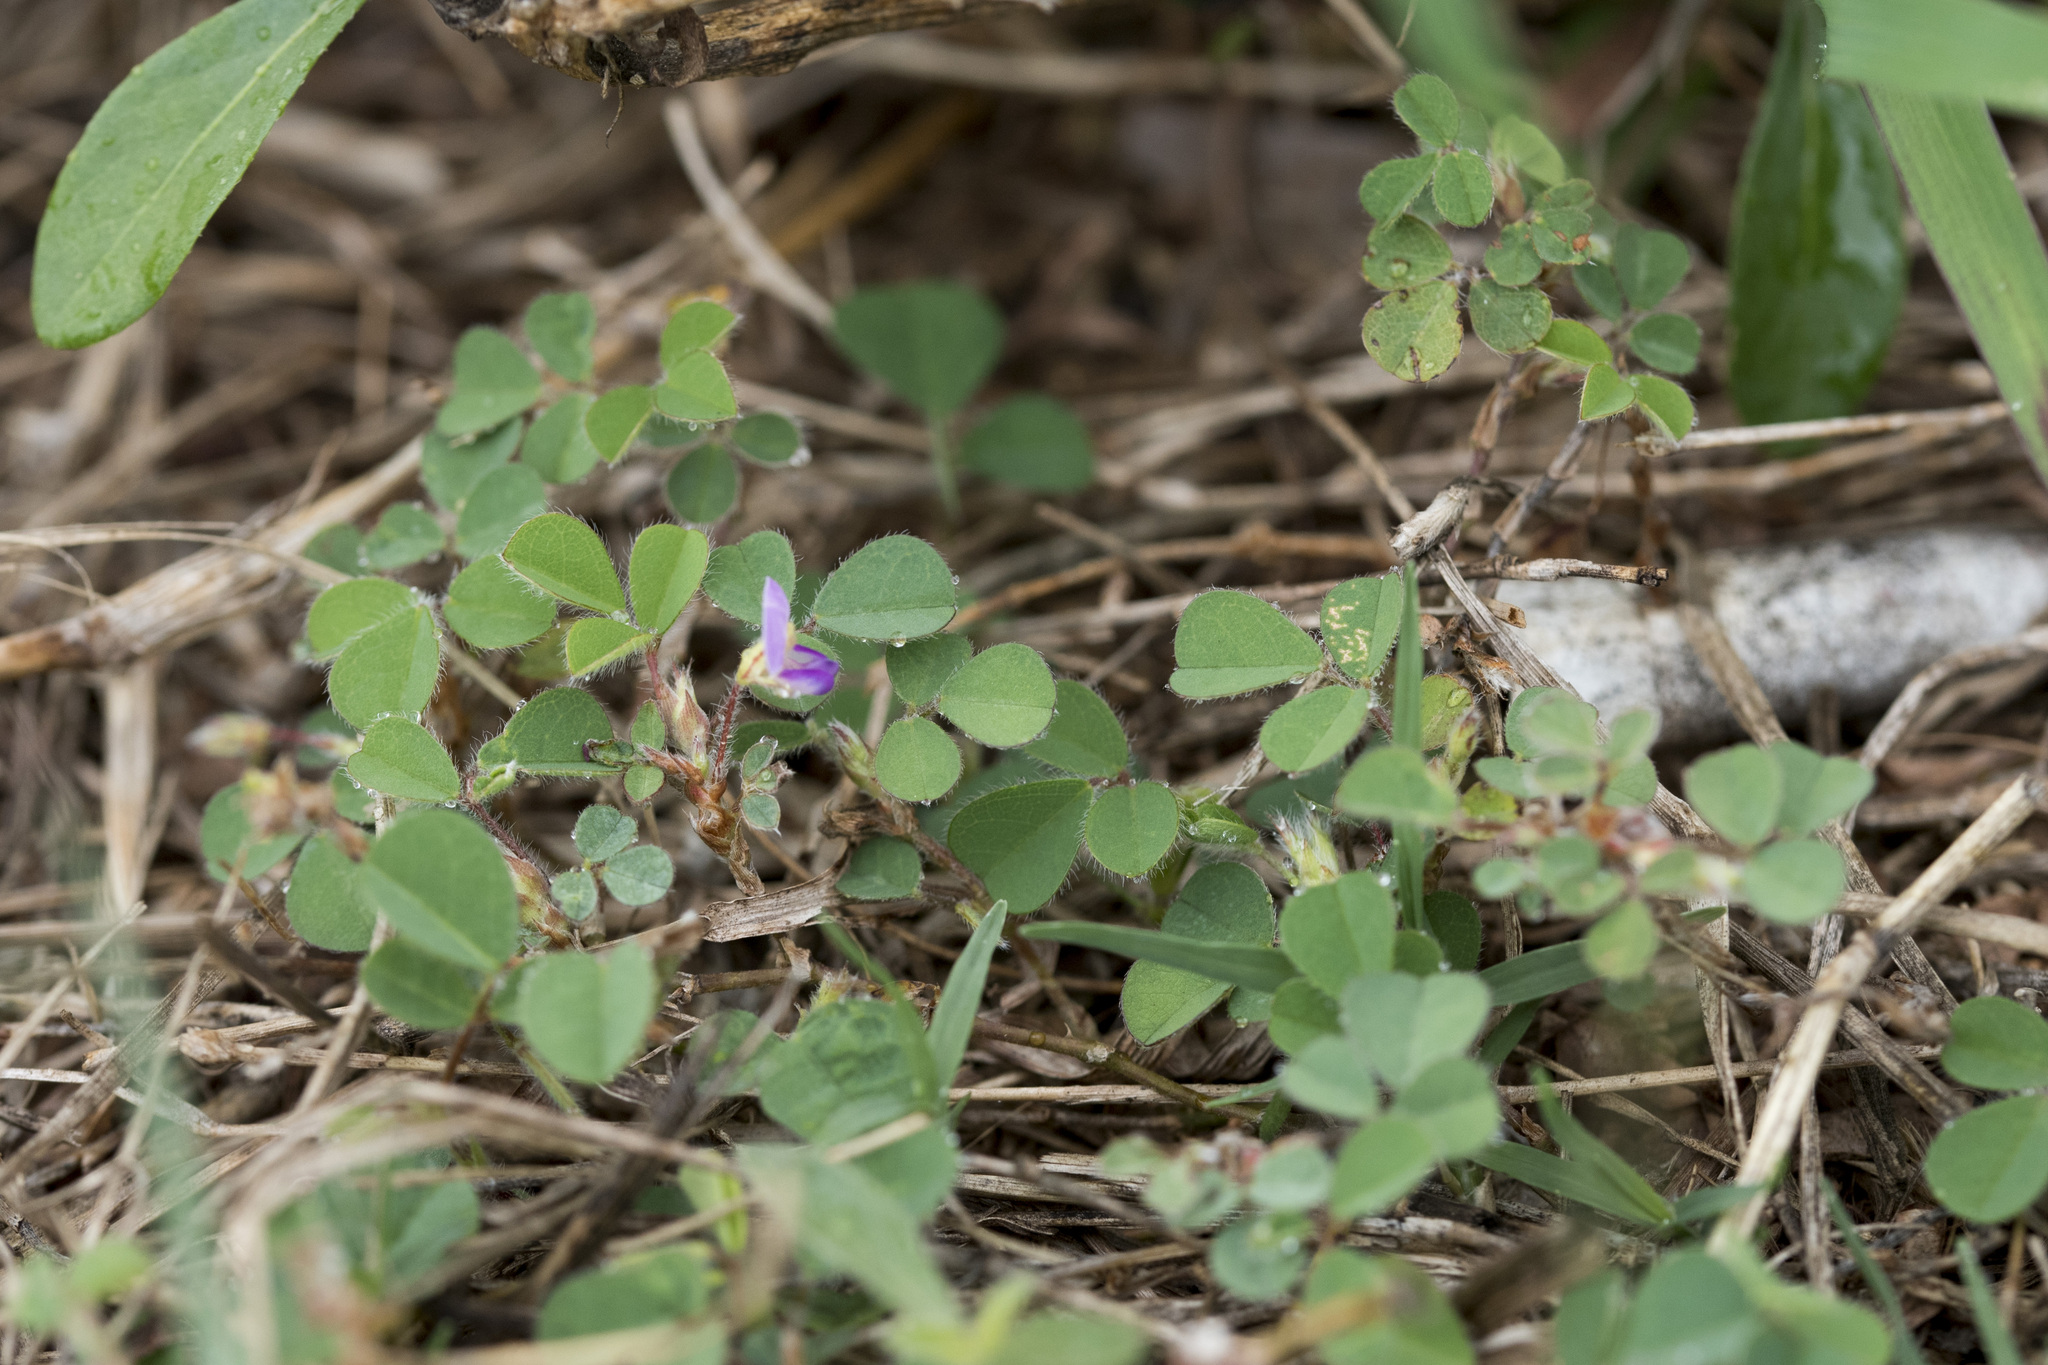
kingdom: Plantae
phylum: Tracheophyta
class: Magnoliopsida
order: Fabales
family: Fabaceae
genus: Grona
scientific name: Grona triflora
